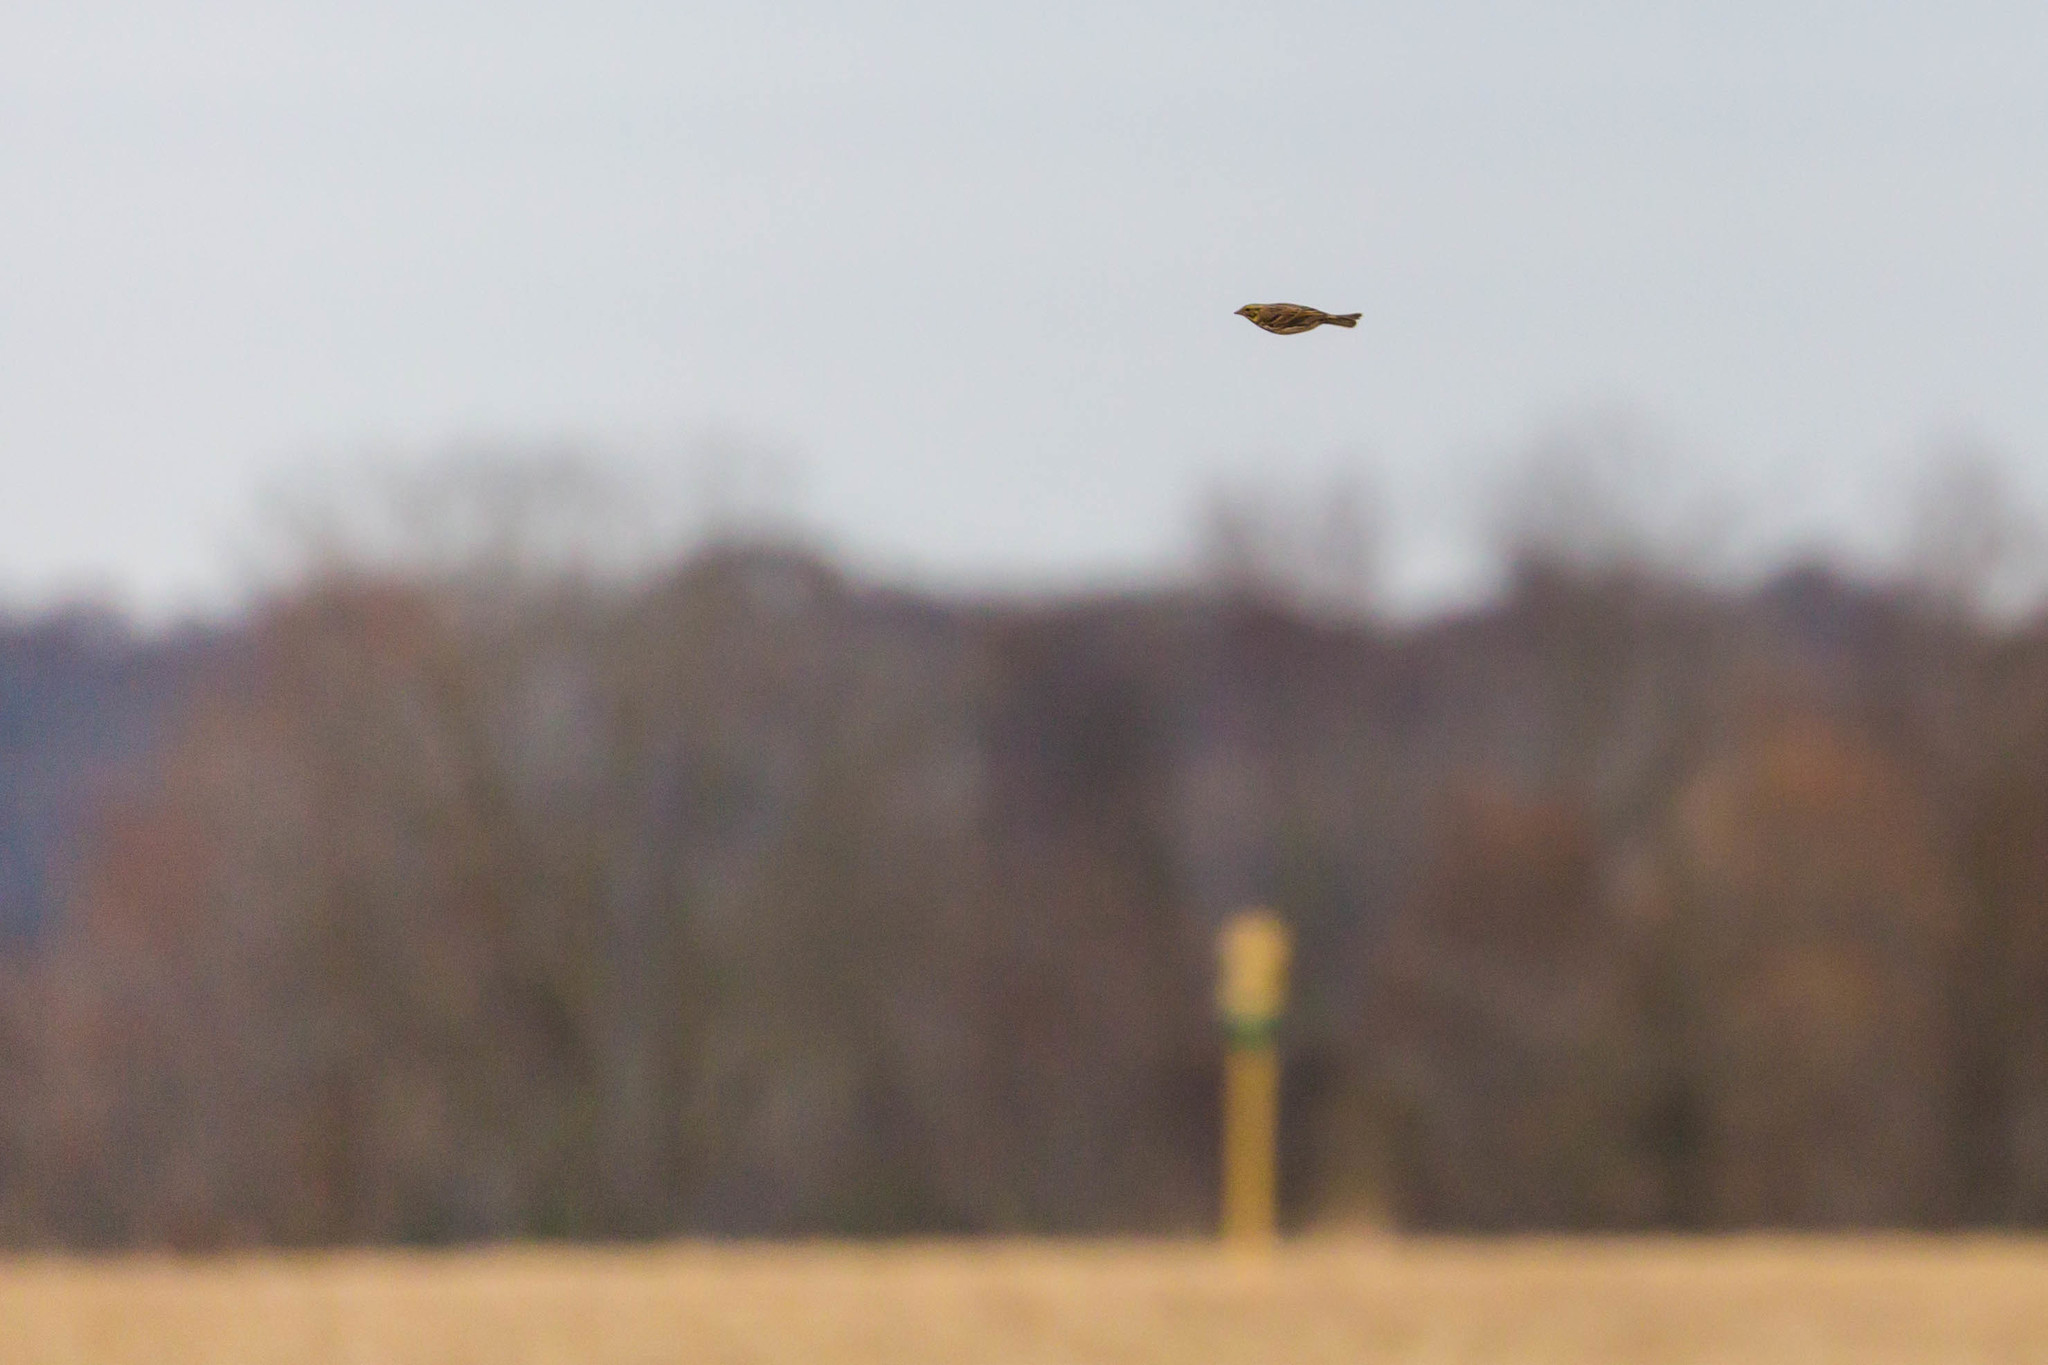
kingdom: Animalia
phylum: Chordata
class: Aves
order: Passeriformes
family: Calcariidae
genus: Calcarius
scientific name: Calcarius lapponicus
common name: Lapland longspur
